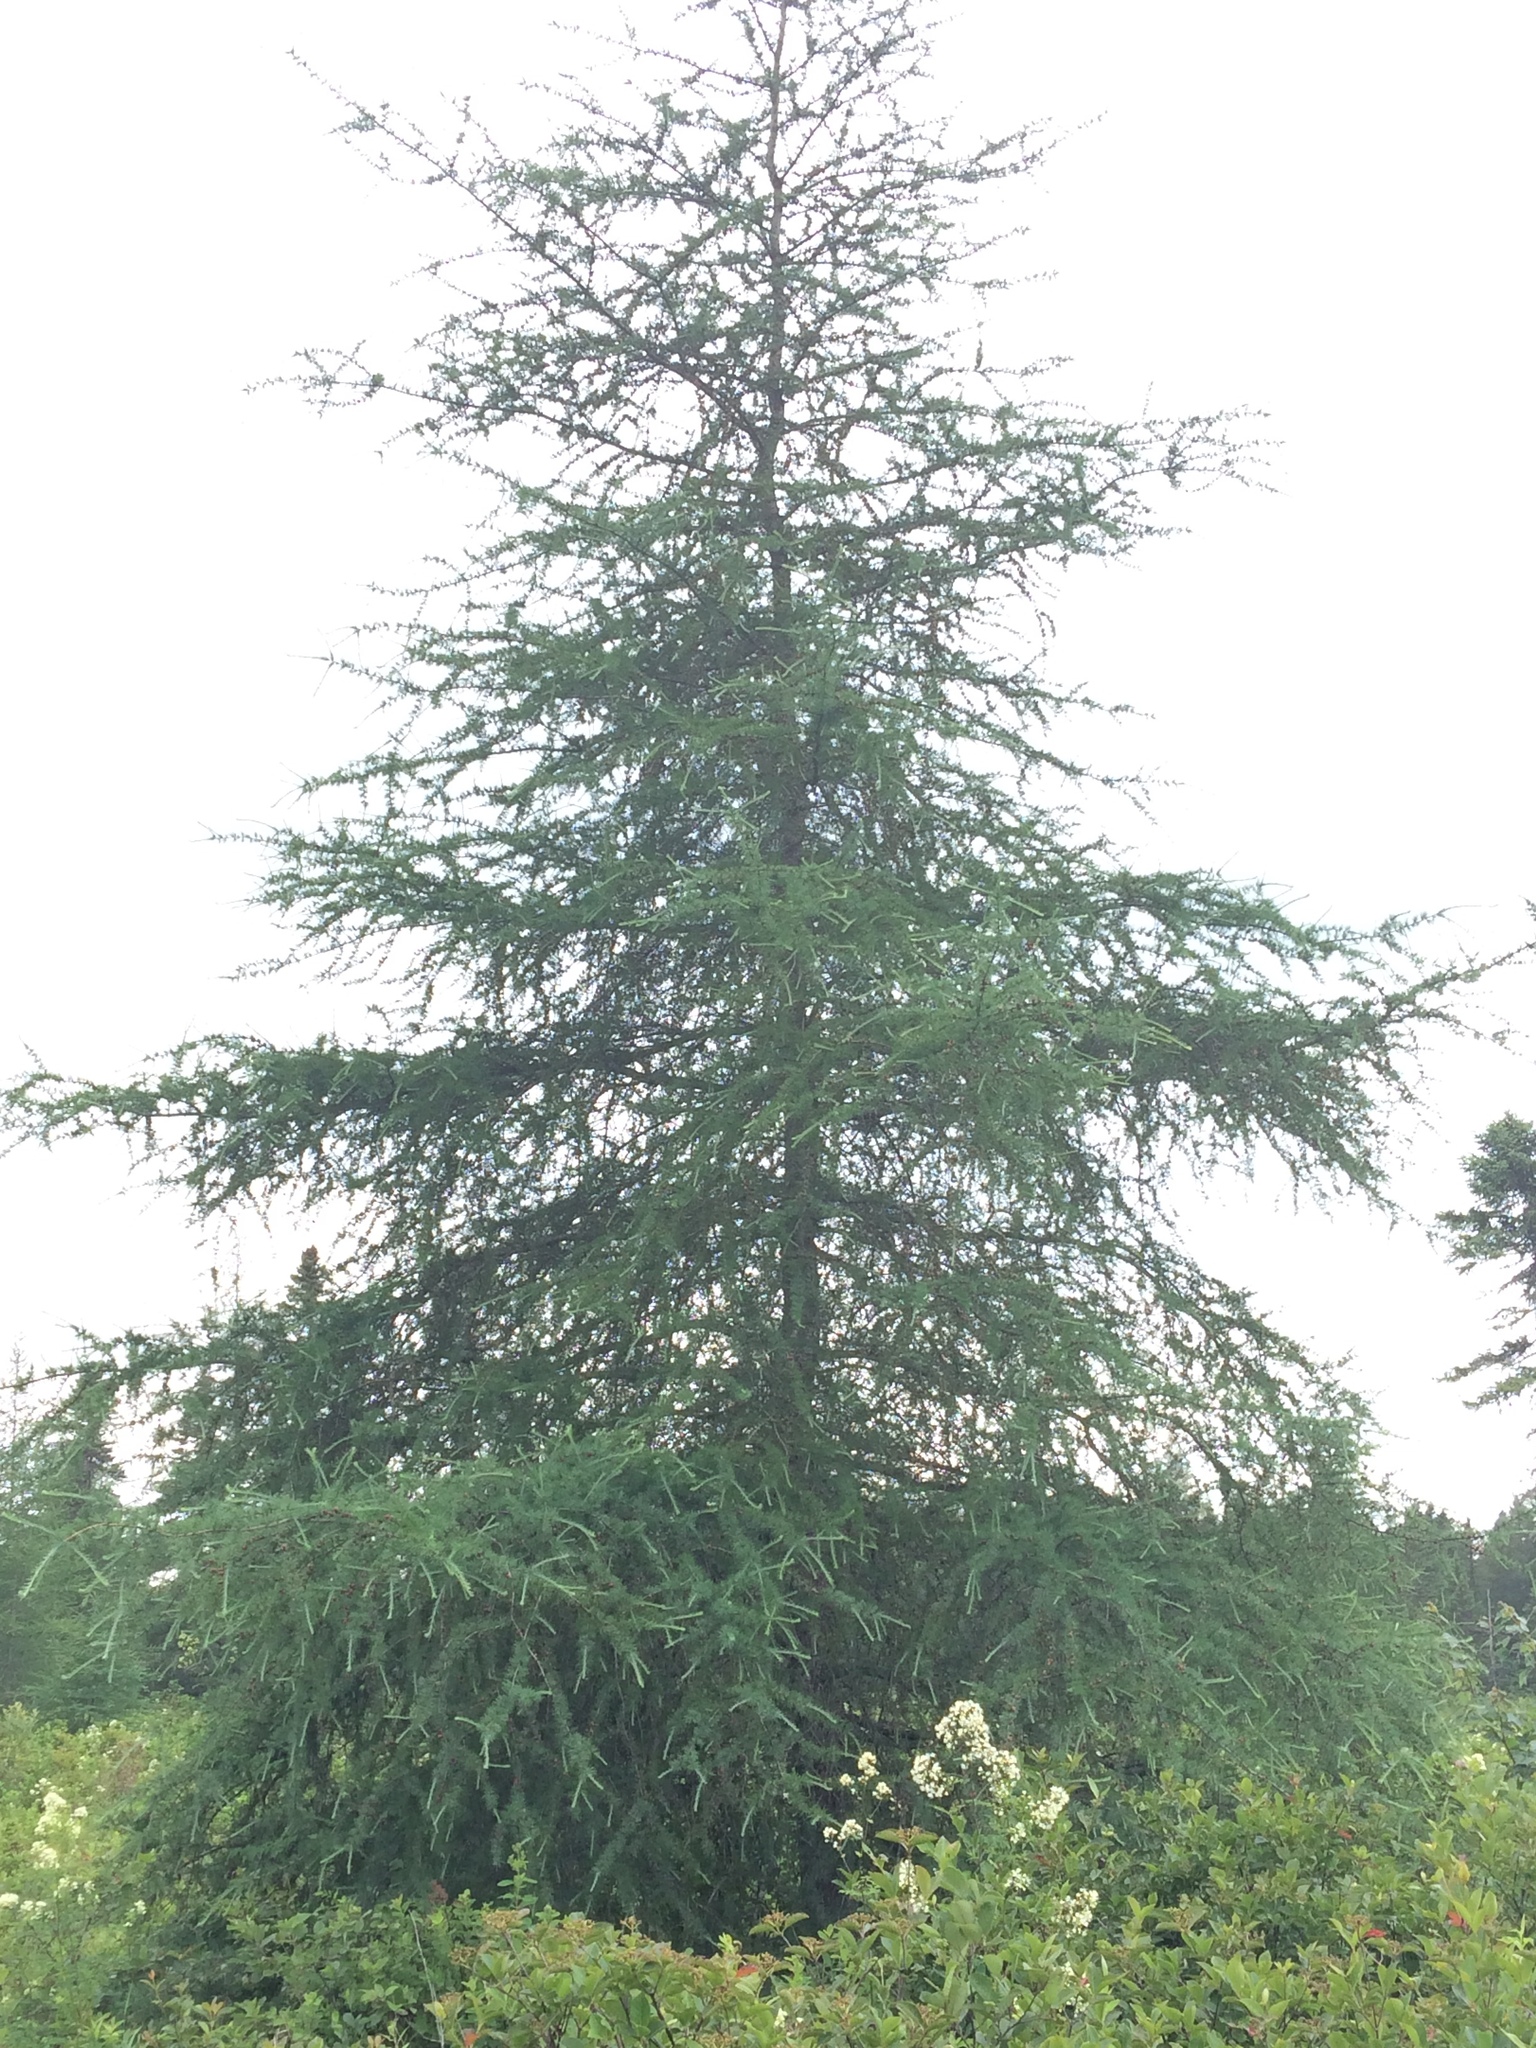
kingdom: Plantae
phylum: Tracheophyta
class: Pinopsida
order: Pinales
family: Pinaceae
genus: Larix
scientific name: Larix laricina
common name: American larch
